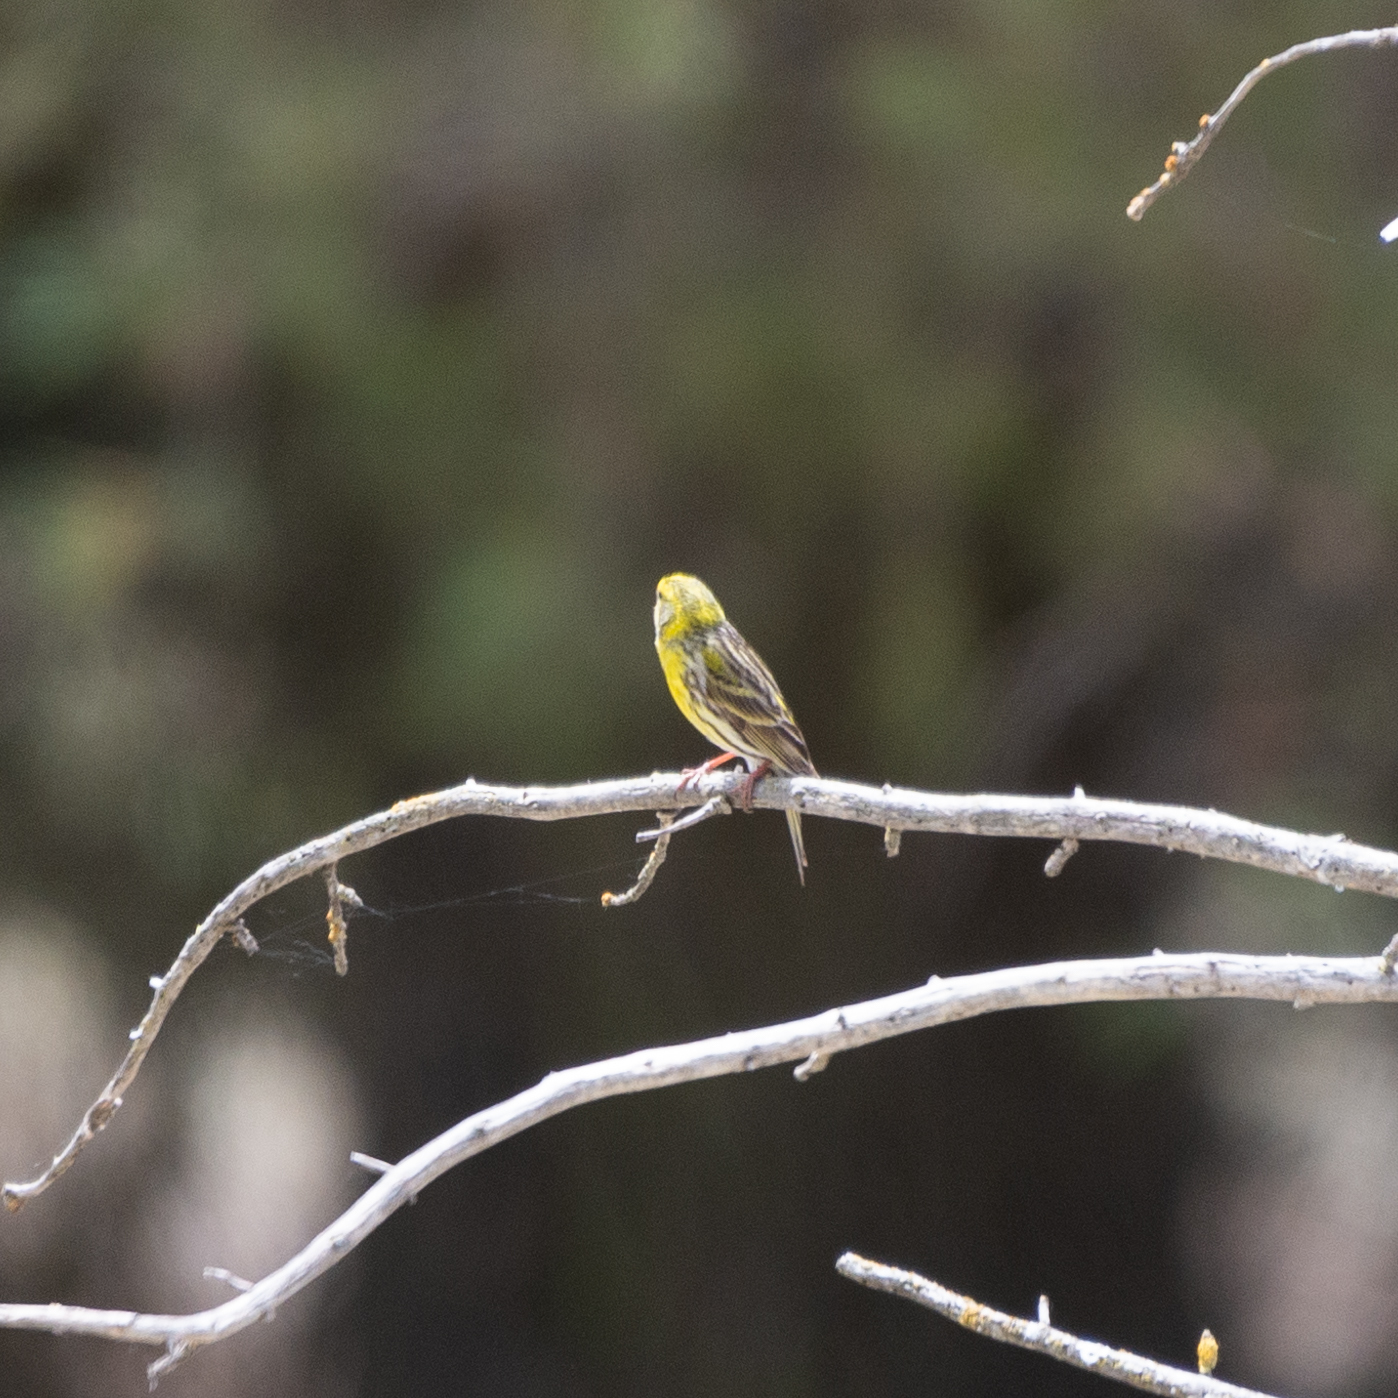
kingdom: Animalia
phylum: Chordata
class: Aves
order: Passeriformes
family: Fringillidae
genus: Serinus
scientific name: Serinus serinus
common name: European serin
